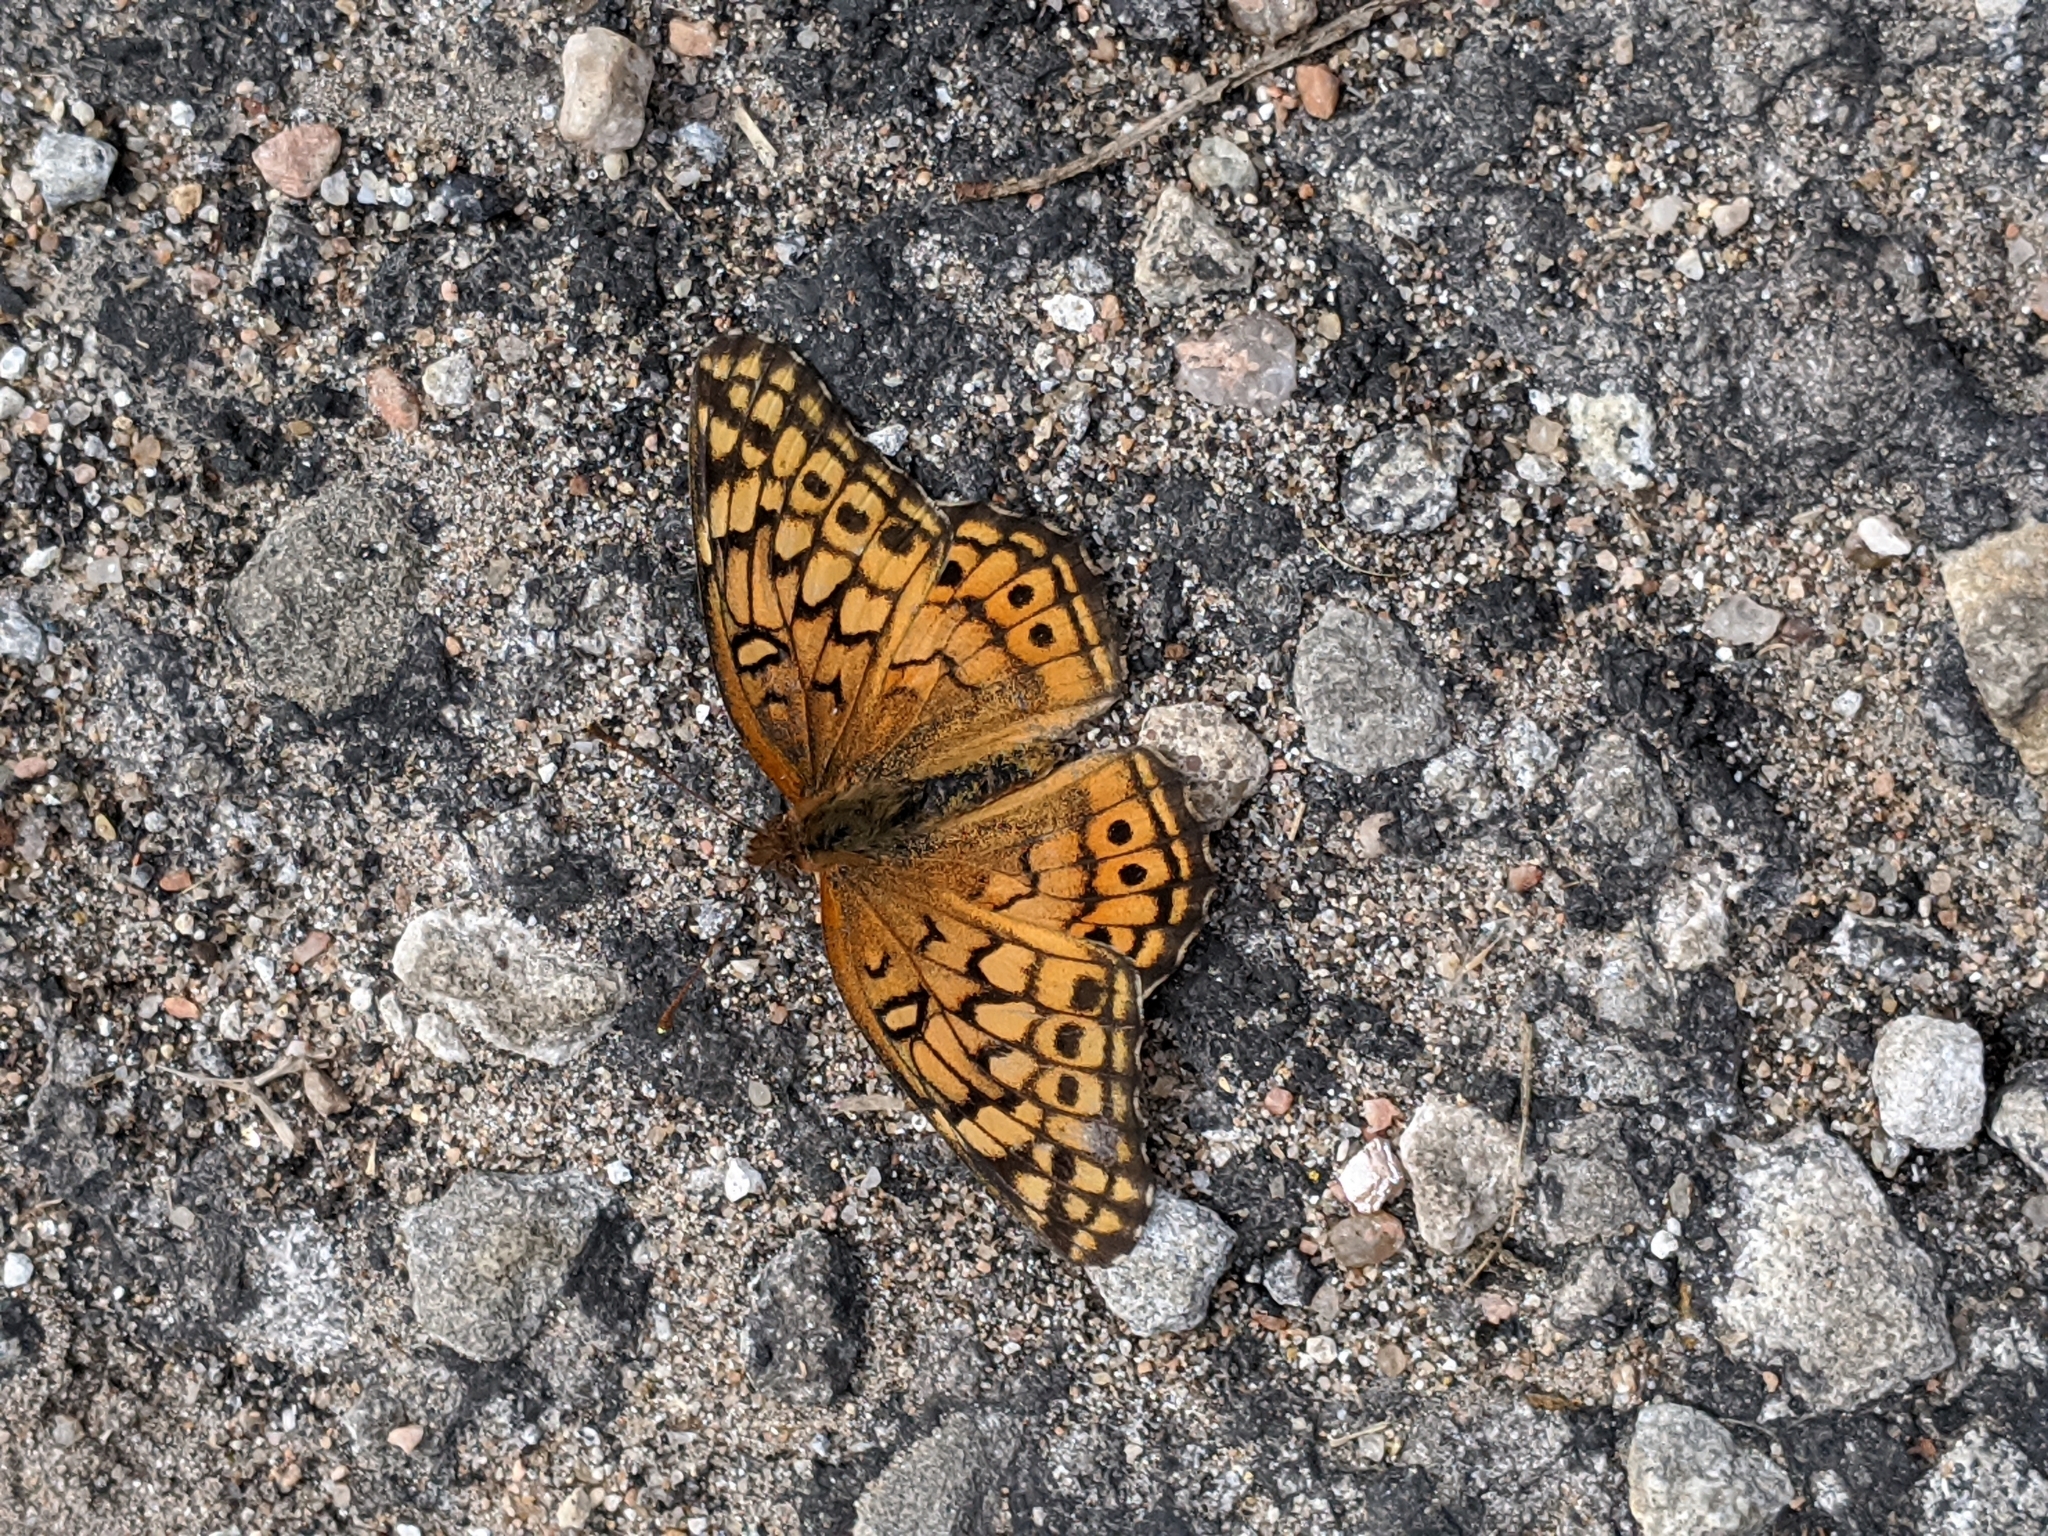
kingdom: Animalia
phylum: Arthropoda
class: Insecta
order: Lepidoptera
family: Nymphalidae
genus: Euptoieta
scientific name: Euptoieta claudia
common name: Variegated fritillary
